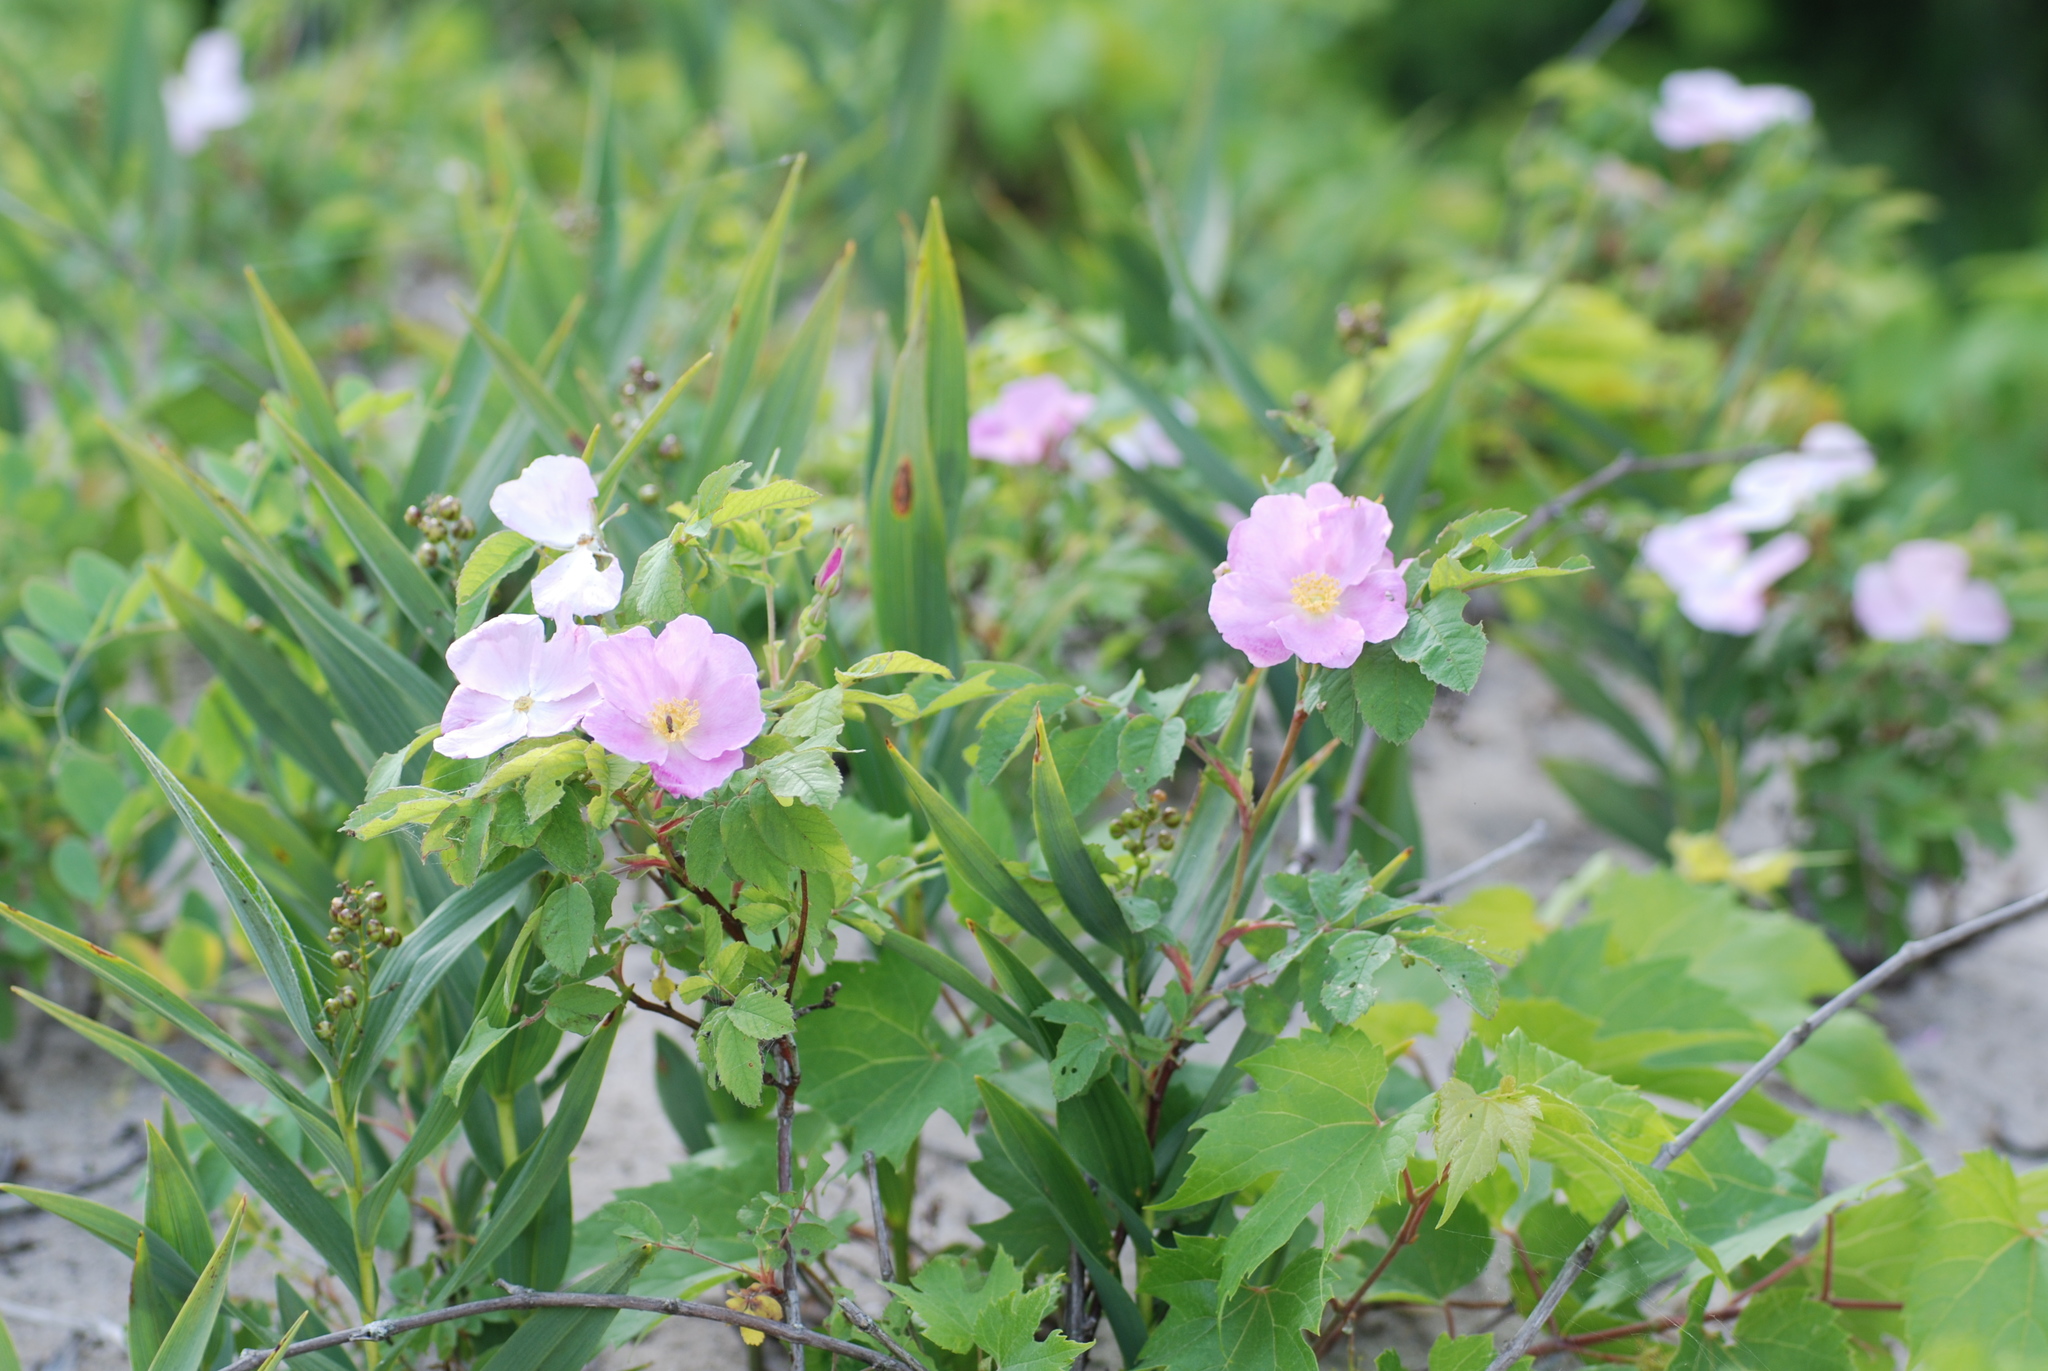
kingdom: Plantae
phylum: Tracheophyta
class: Magnoliopsida
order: Rosales
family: Rosaceae
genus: Rosa
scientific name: Rosa blanda
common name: Smooth rose
